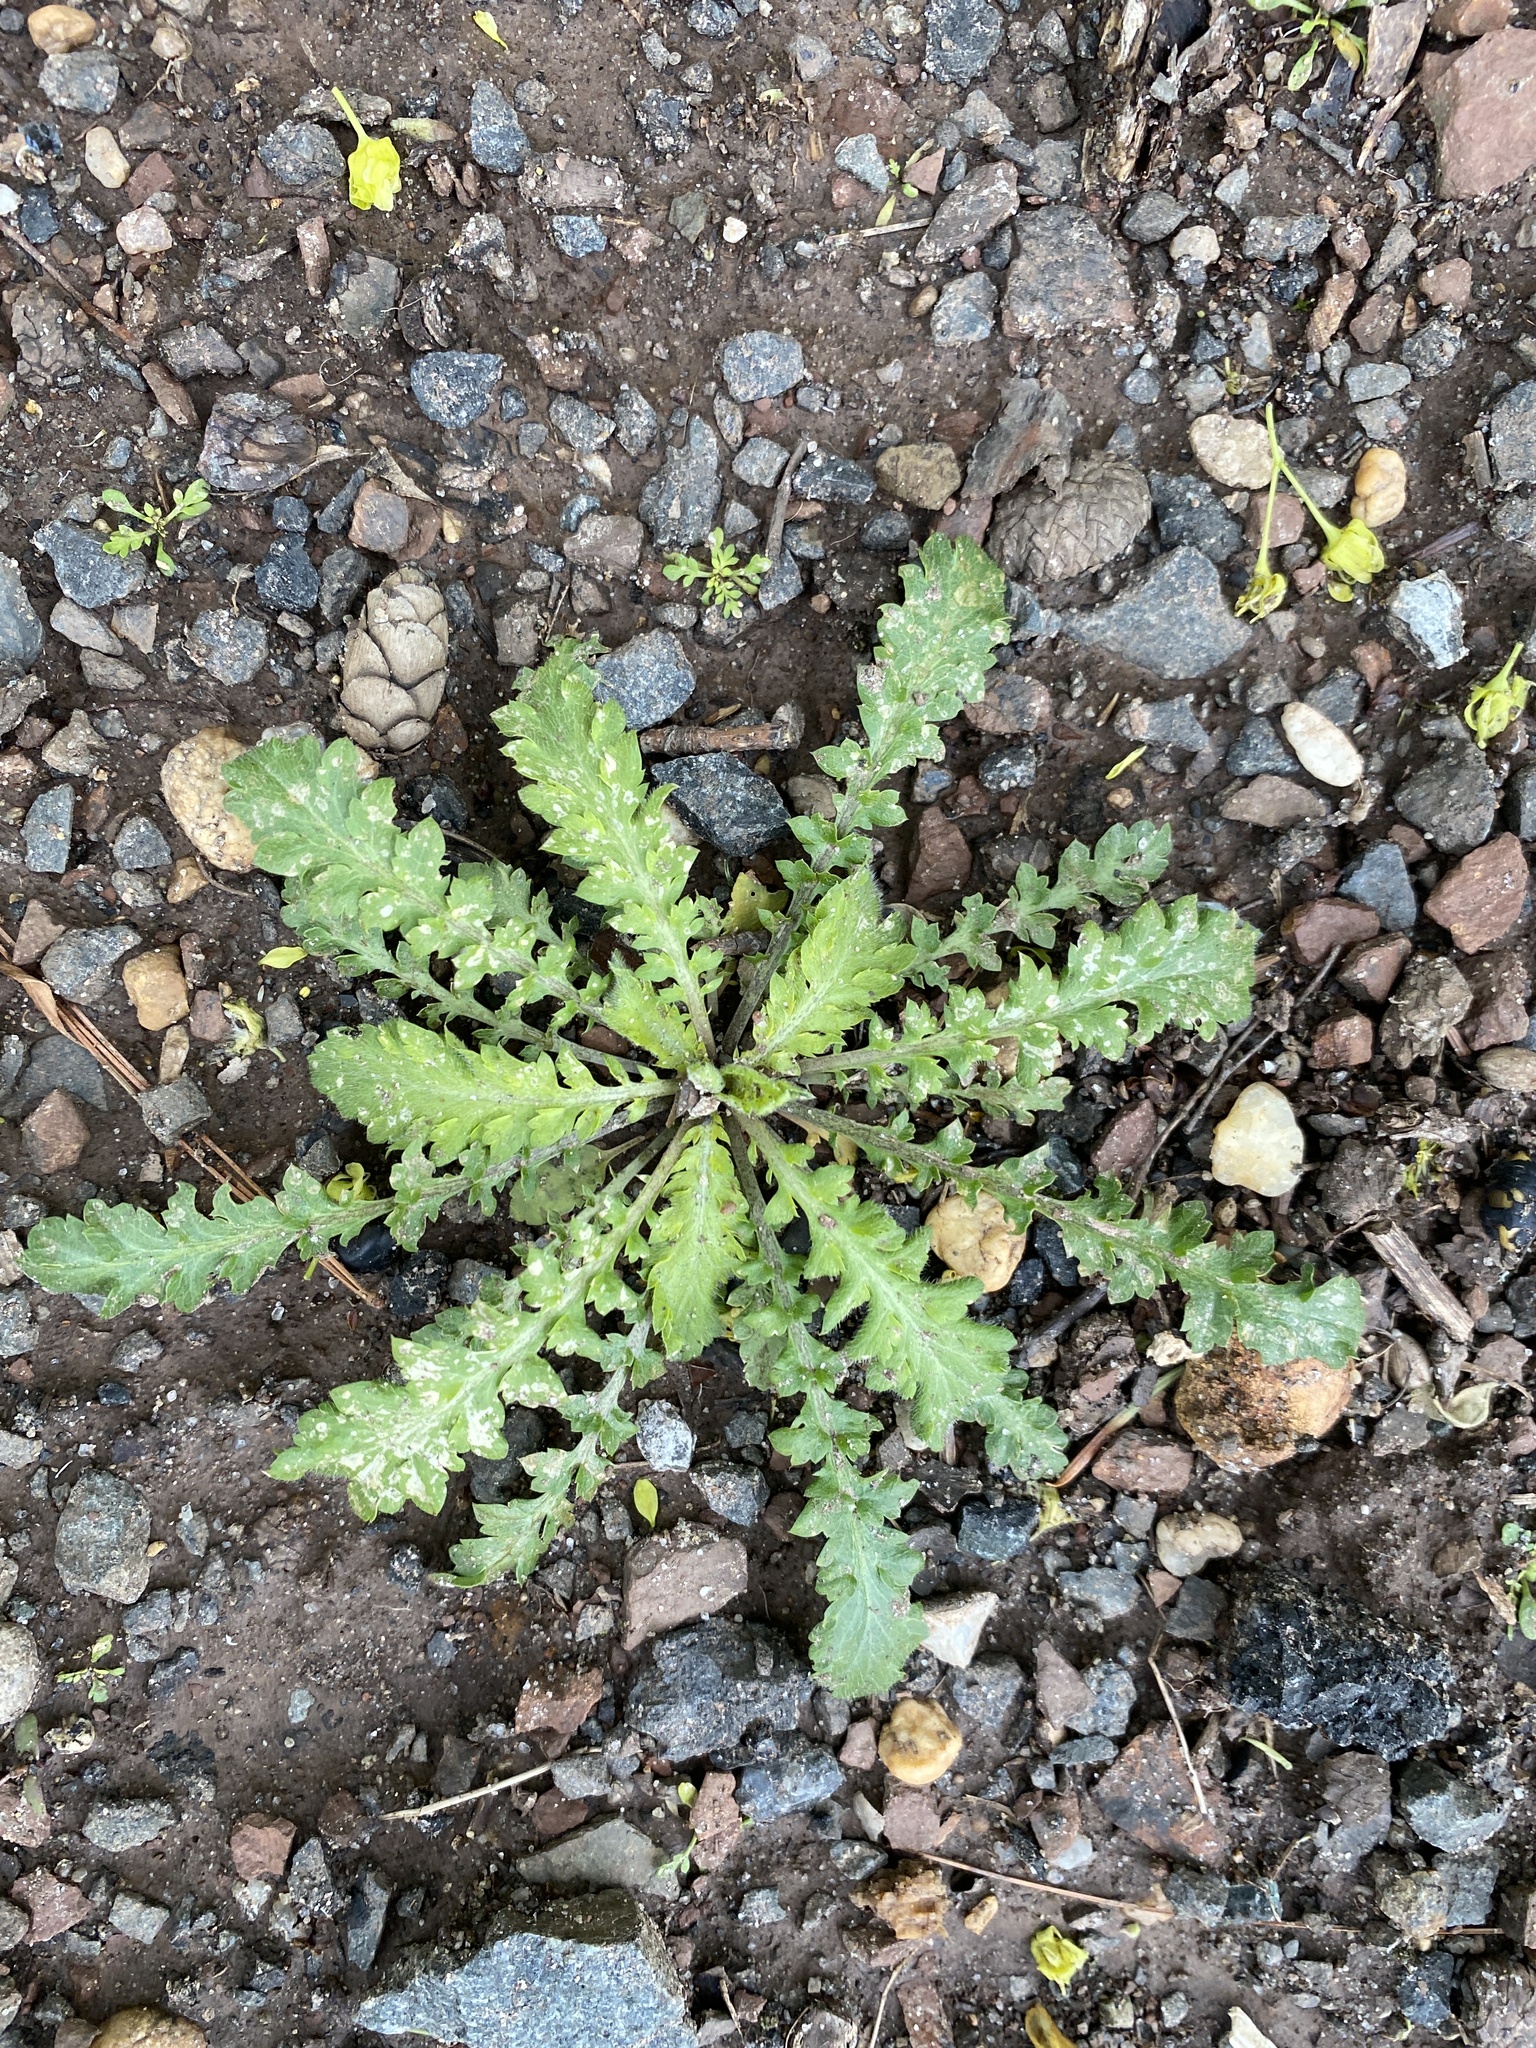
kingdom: Plantae
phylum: Tracheophyta
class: Magnoliopsida
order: Brassicales
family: Brassicaceae
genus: Lepidium
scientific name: Lepidium didymum
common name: Lesser swinecress
